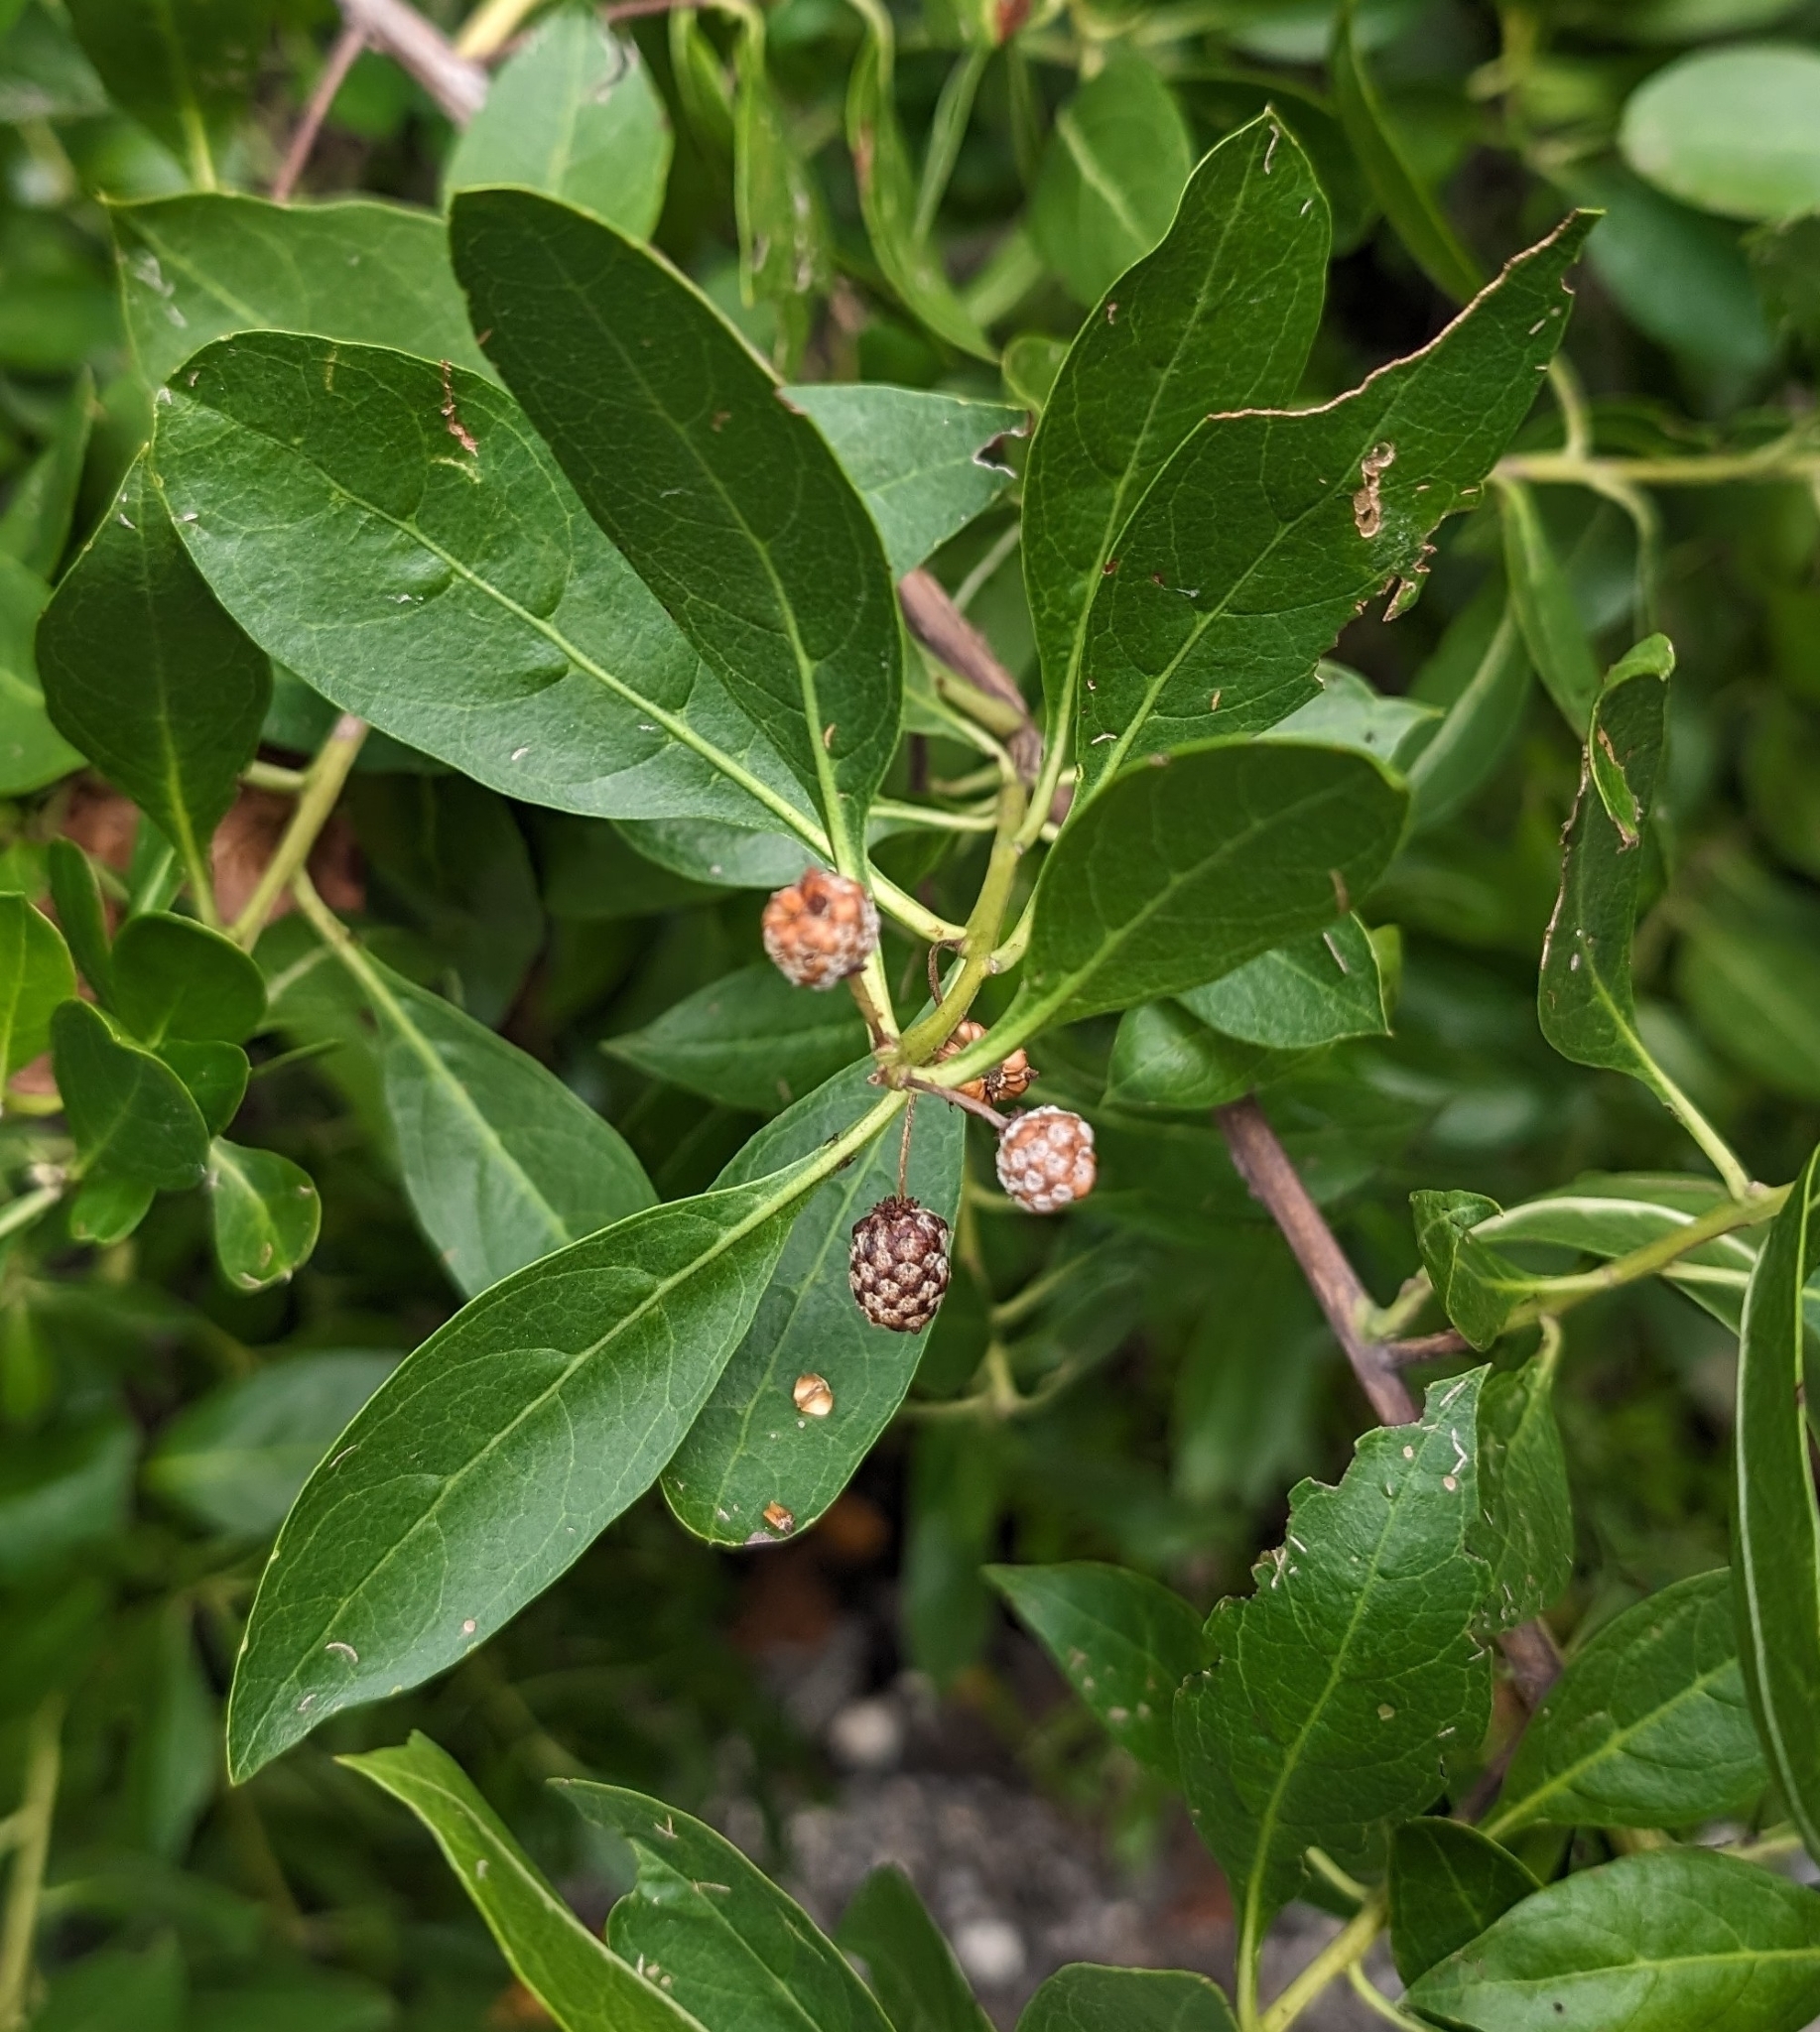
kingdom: Plantae
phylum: Tracheophyta
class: Magnoliopsida
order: Myrtales
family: Combretaceae
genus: Conocarpus
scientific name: Conocarpus erectus
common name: Button mangrove
